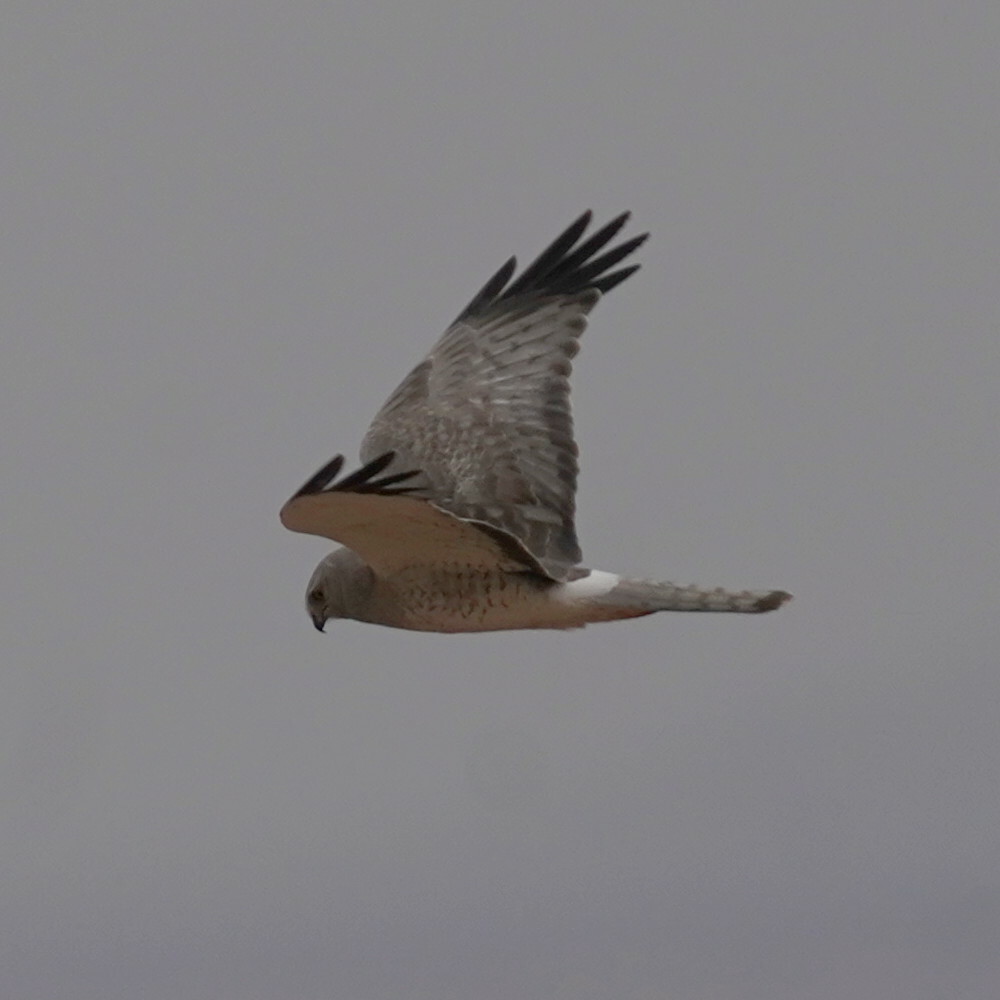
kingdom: Animalia
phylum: Chordata
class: Aves
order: Accipitriformes
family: Accipitridae
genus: Circus
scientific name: Circus cyaneus
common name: Hen harrier
